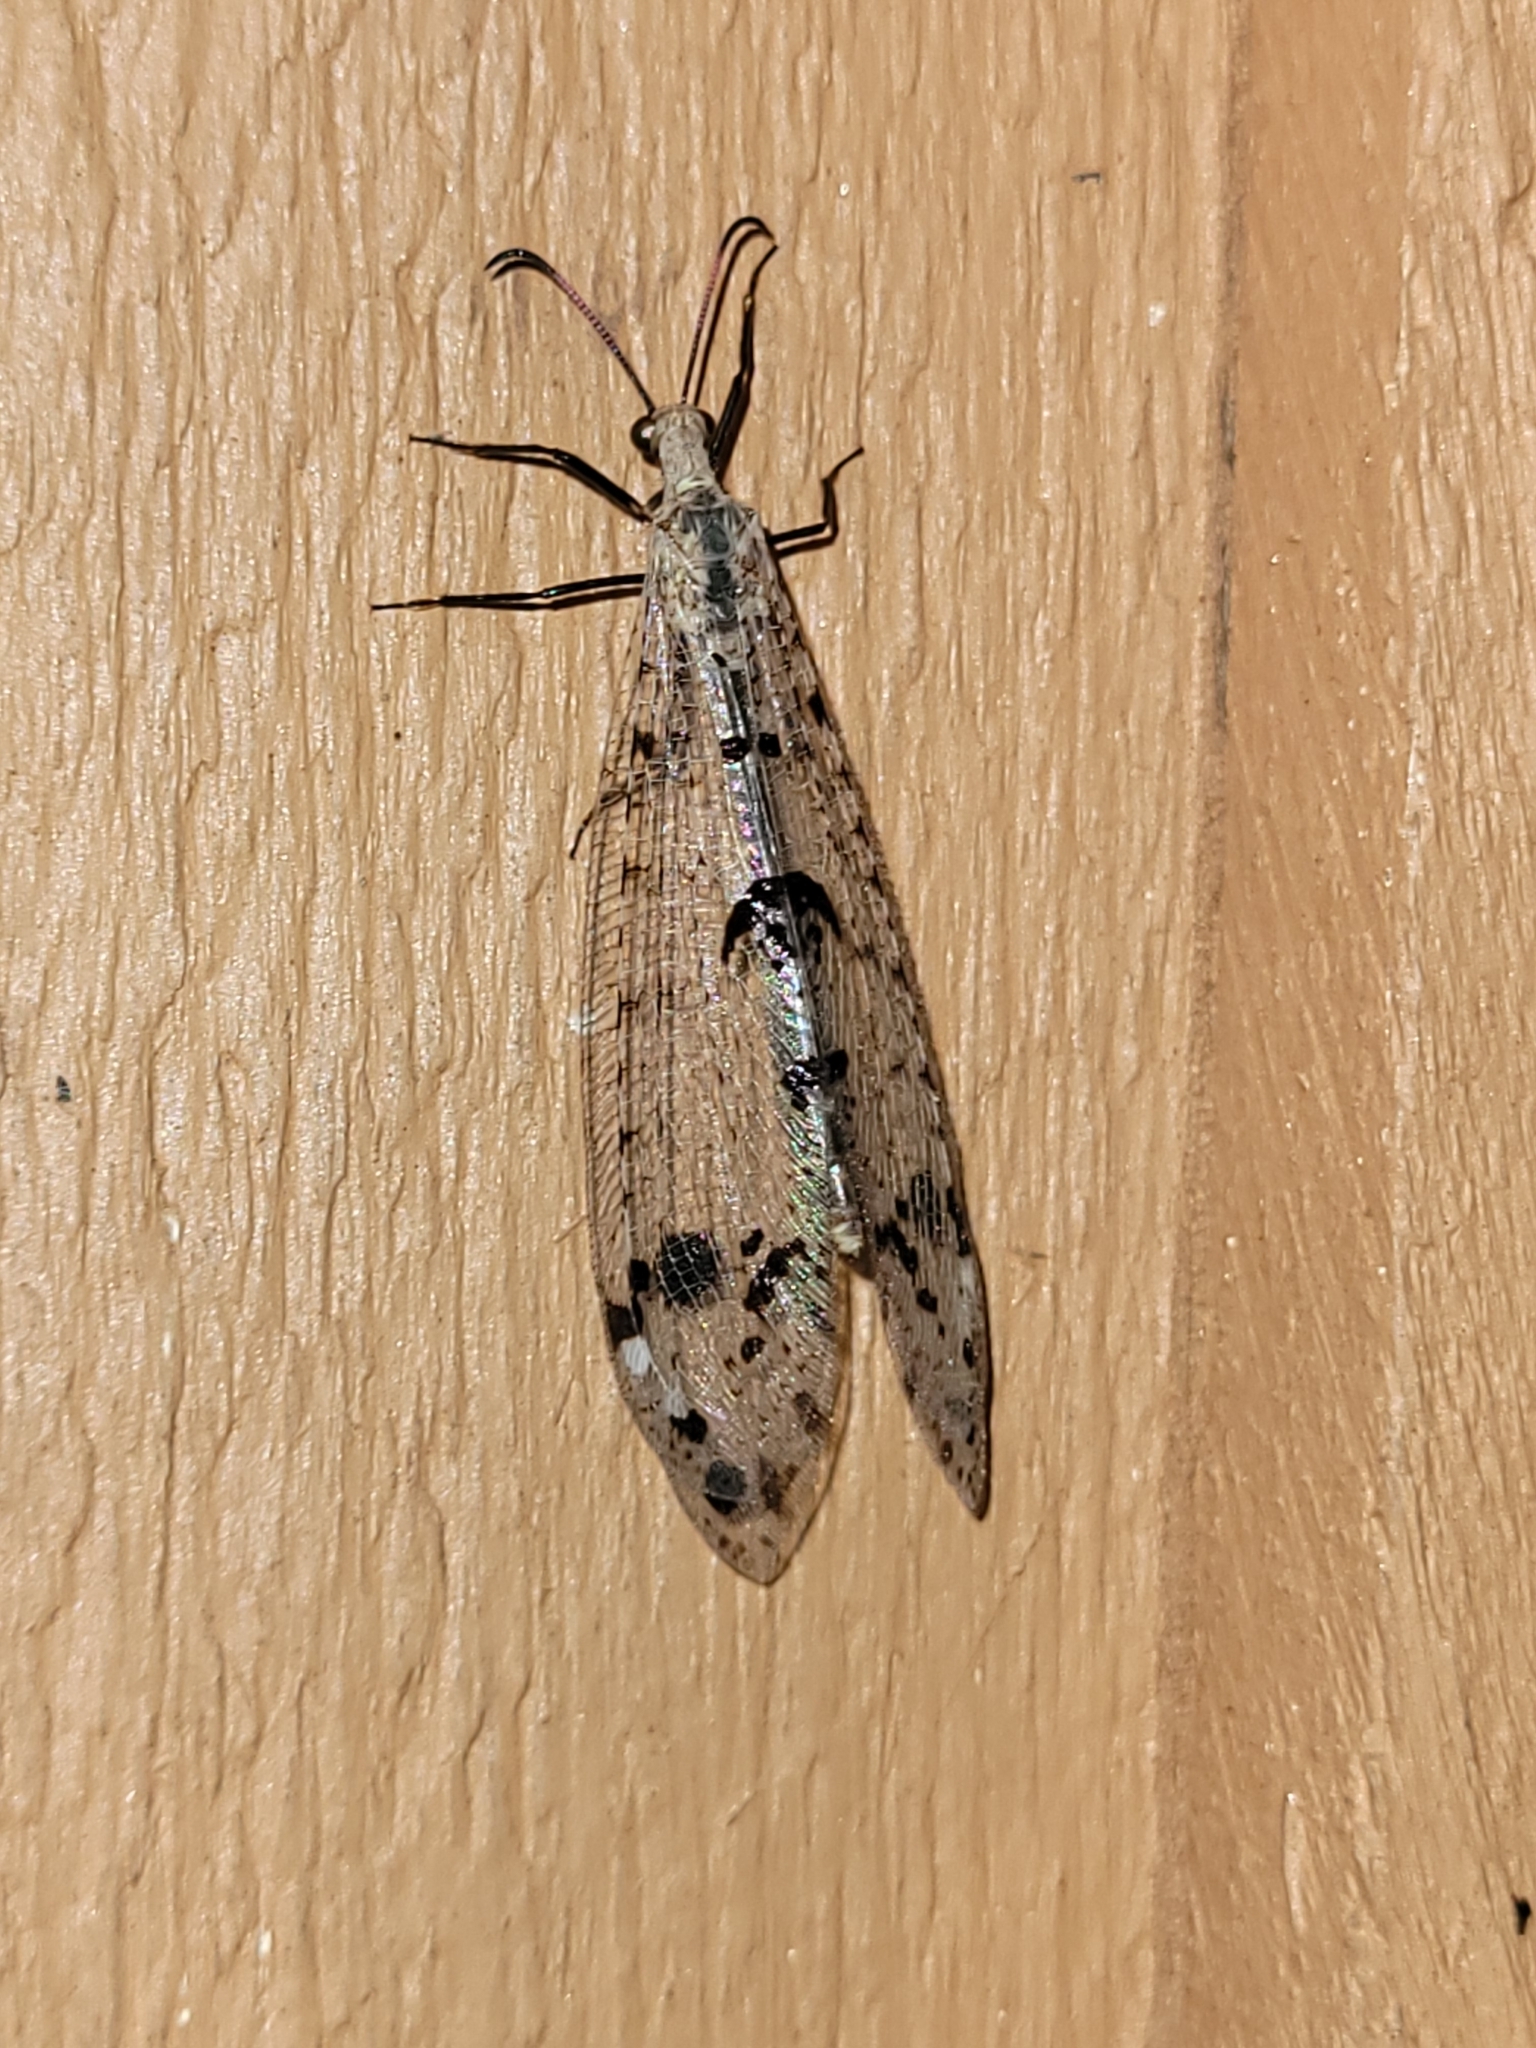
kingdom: Animalia
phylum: Arthropoda
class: Insecta
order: Neuroptera
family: Myrmeleontidae
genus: Dendroleon
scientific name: Dendroleon obsoletus
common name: Eastern spotted-winged antlion
